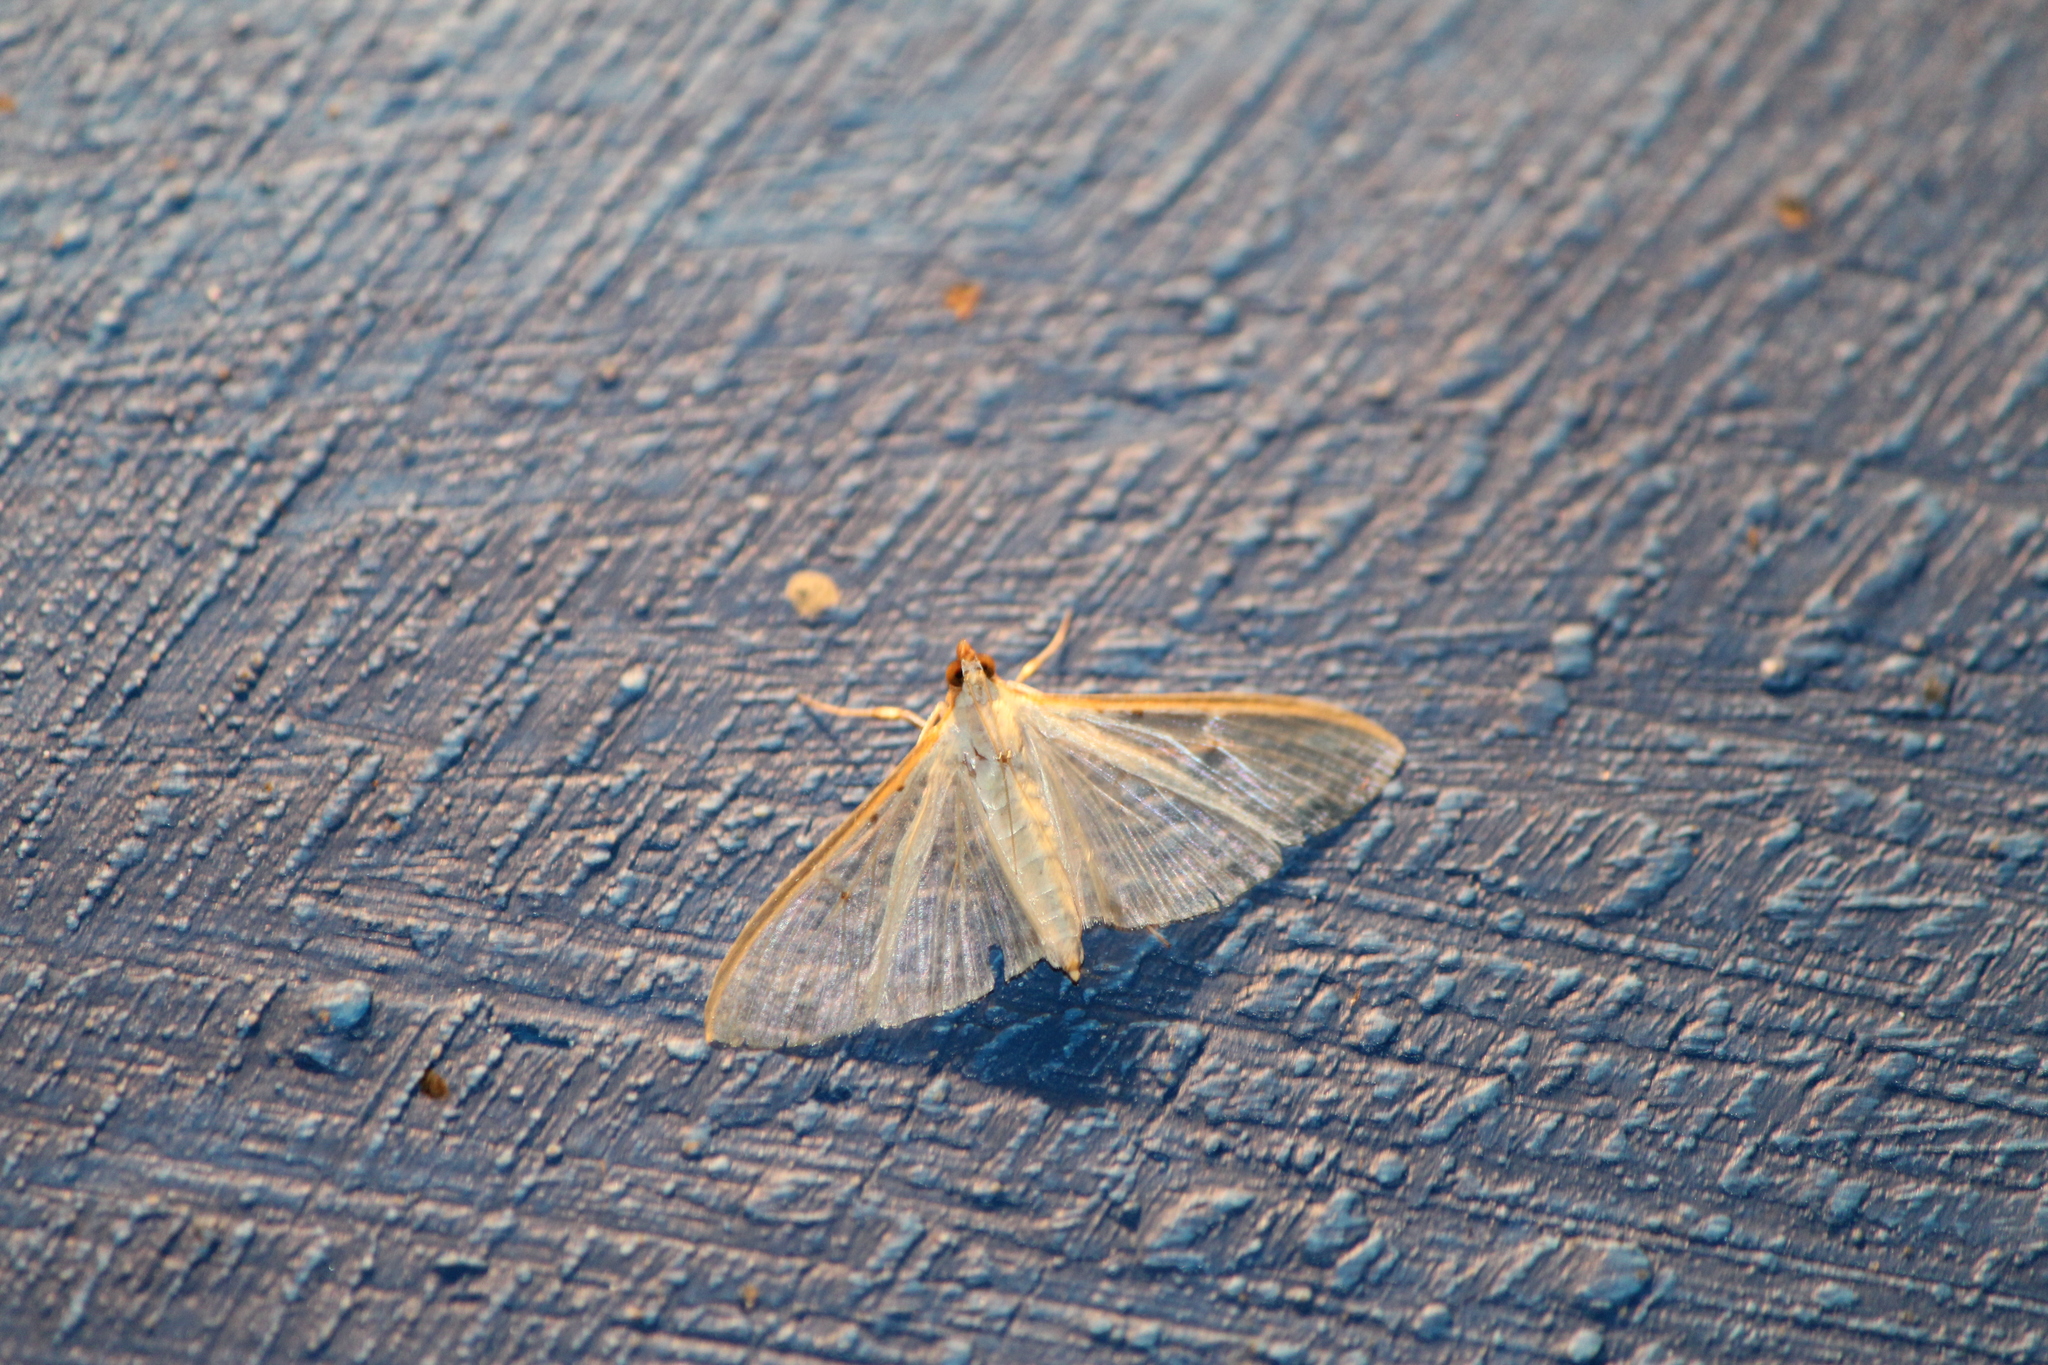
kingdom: Animalia
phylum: Arthropoda
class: Insecta
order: Lepidoptera
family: Crambidae
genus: Palpita
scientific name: Palpita quadristigmalis
